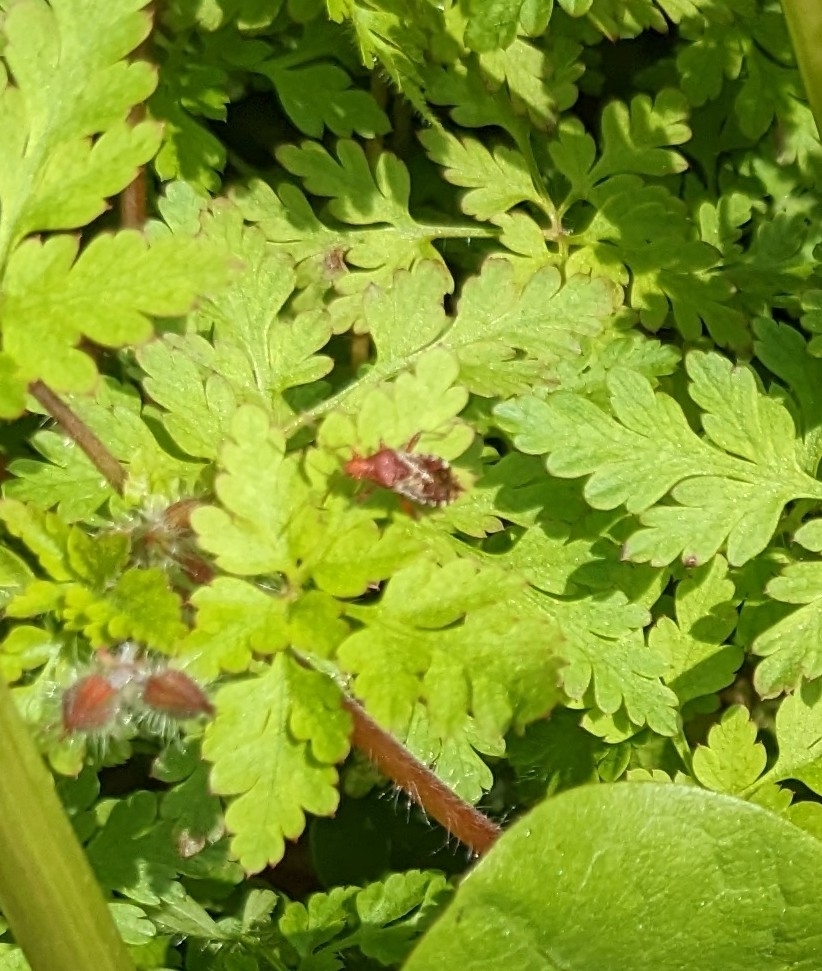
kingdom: Animalia
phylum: Arthropoda
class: Insecta
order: Hemiptera
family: Rhopalidae
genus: Rhopalus
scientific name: Rhopalus subrufus
